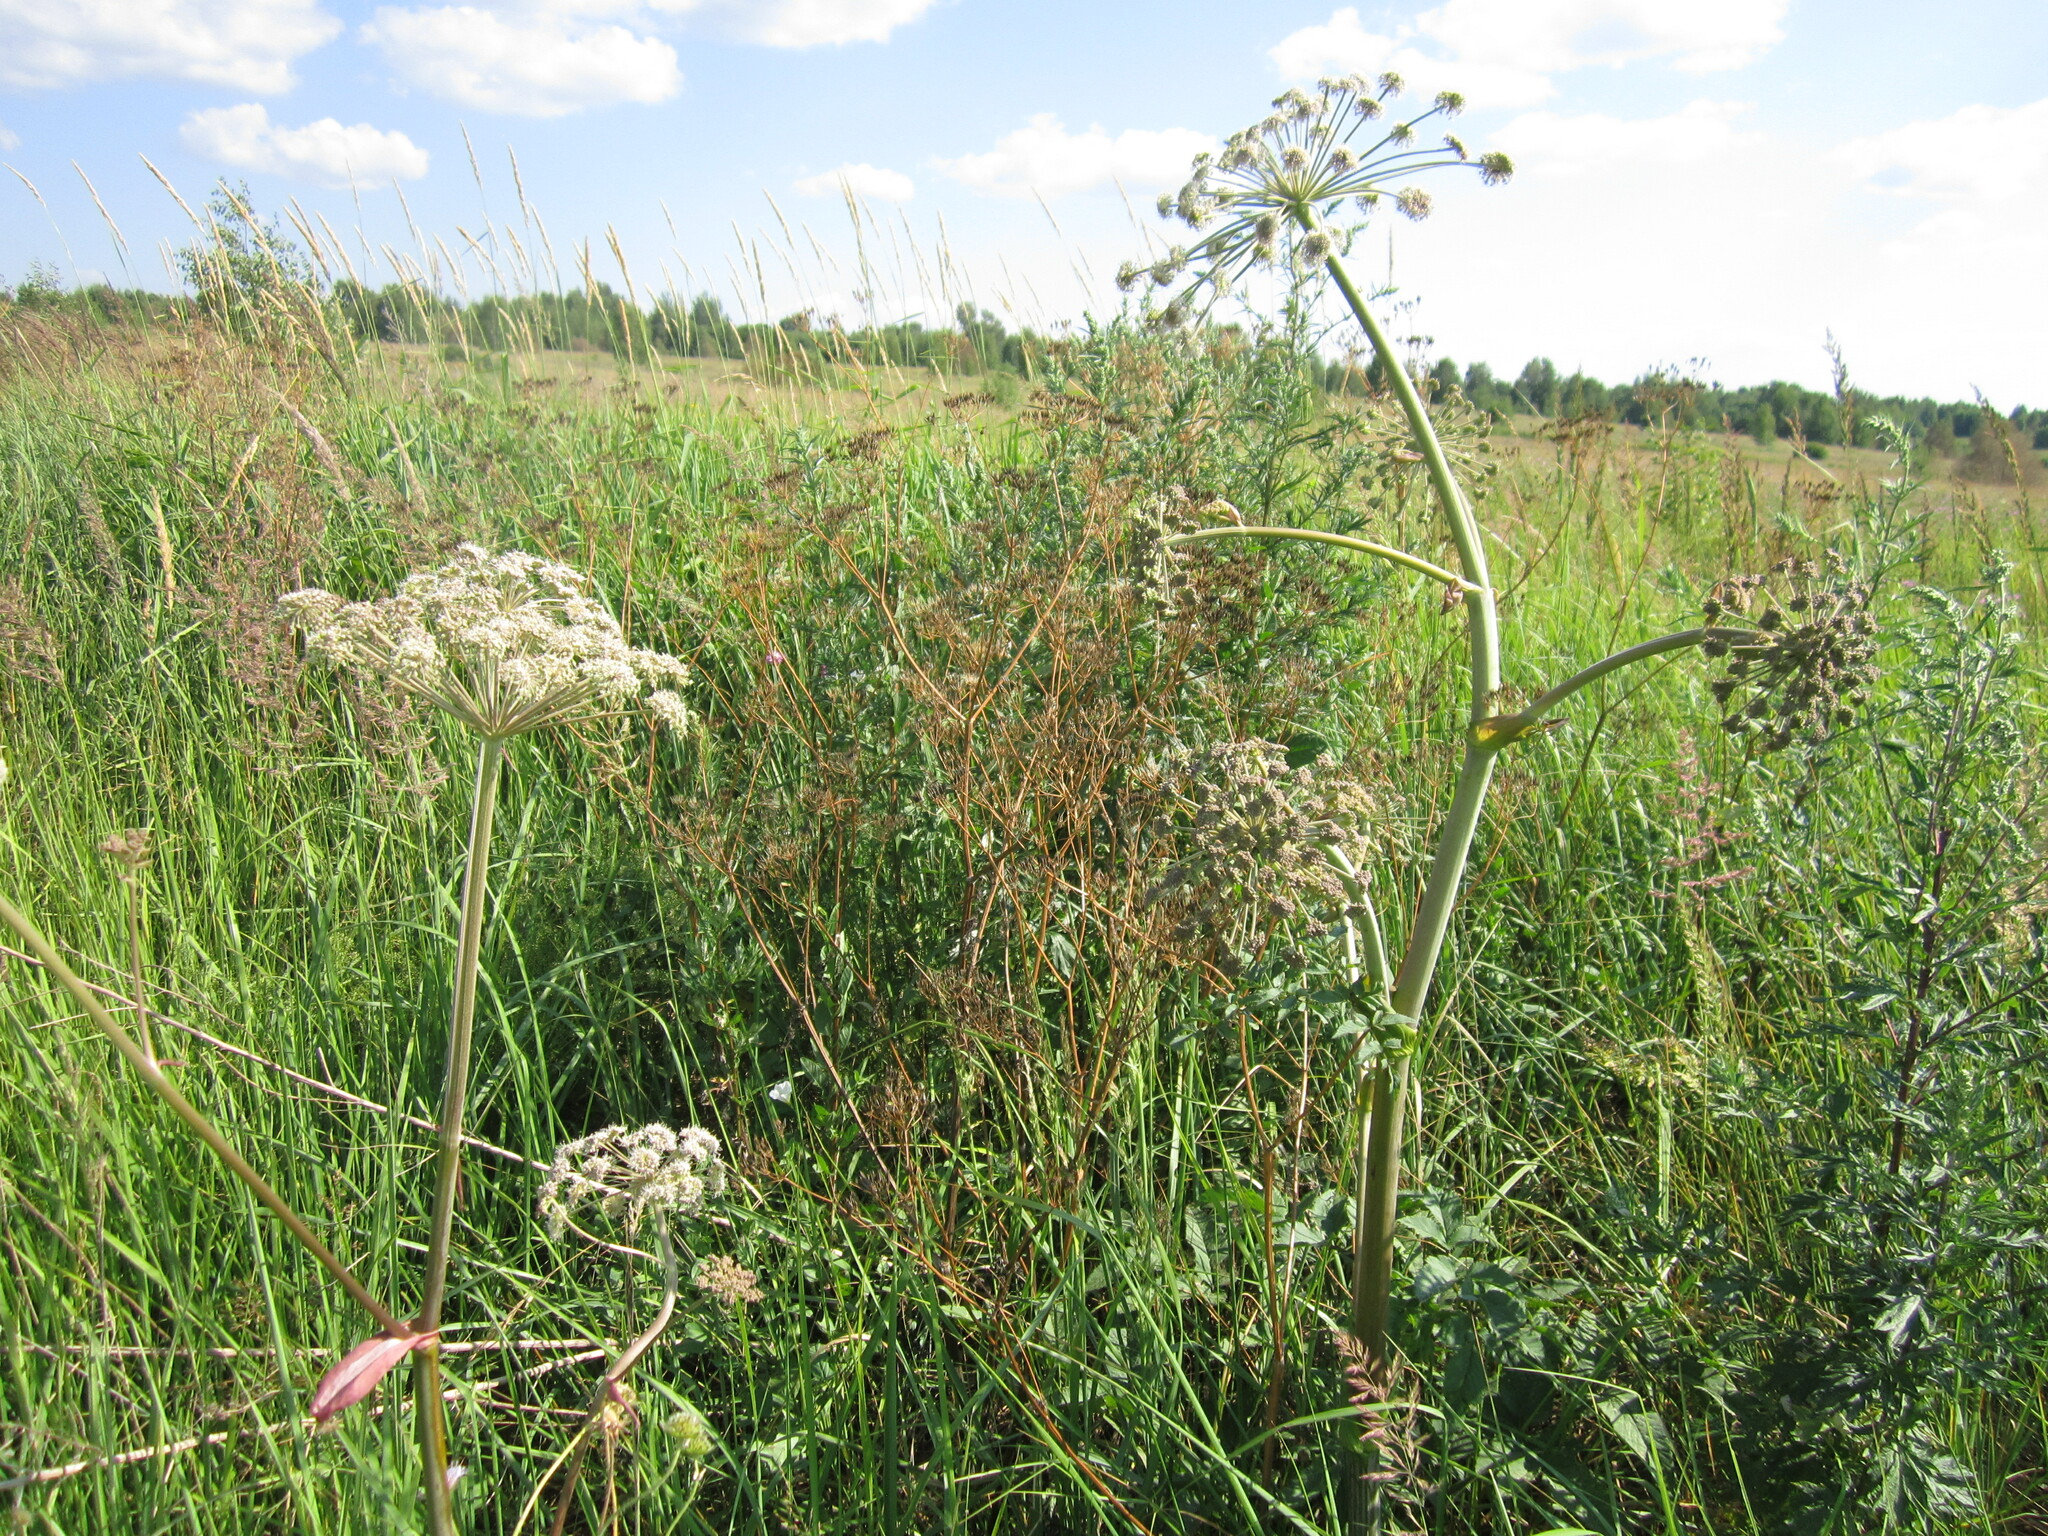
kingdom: Plantae
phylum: Tracheophyta
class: Magnoliopsida
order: Apiales
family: Apiaceae
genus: Angelica
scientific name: Angelica sylvestris
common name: Wild angelica
